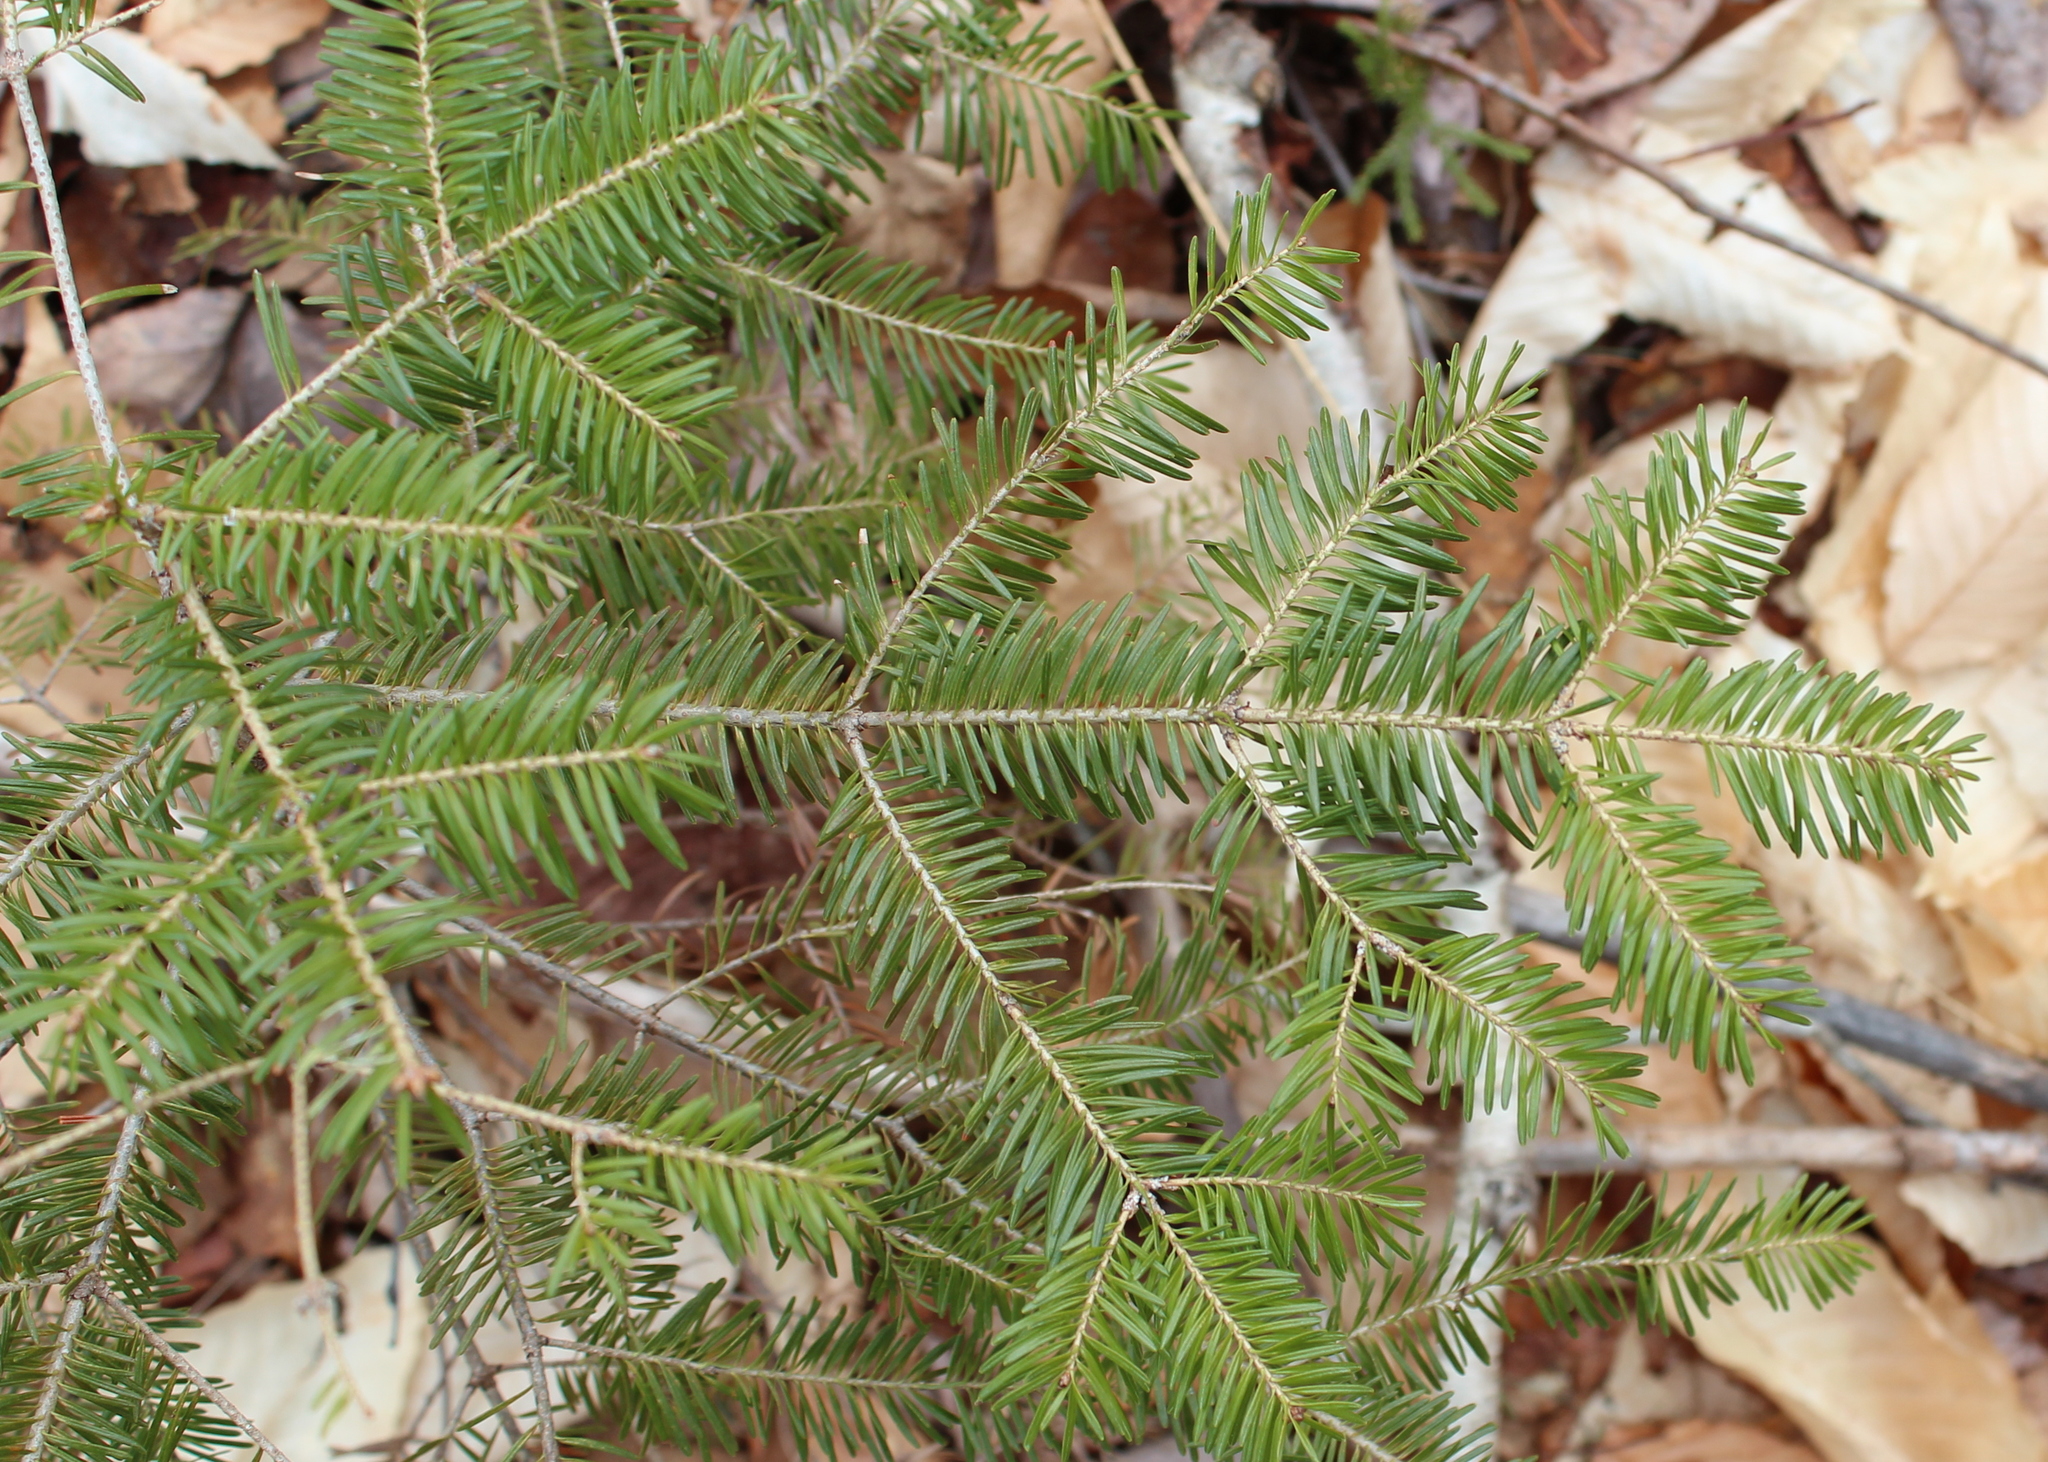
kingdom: Plantae
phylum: Tracheophyta
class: Pinopsida
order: Pinales
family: Pinaceae
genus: Abies
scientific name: Abies balsamea
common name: Balsam fir
